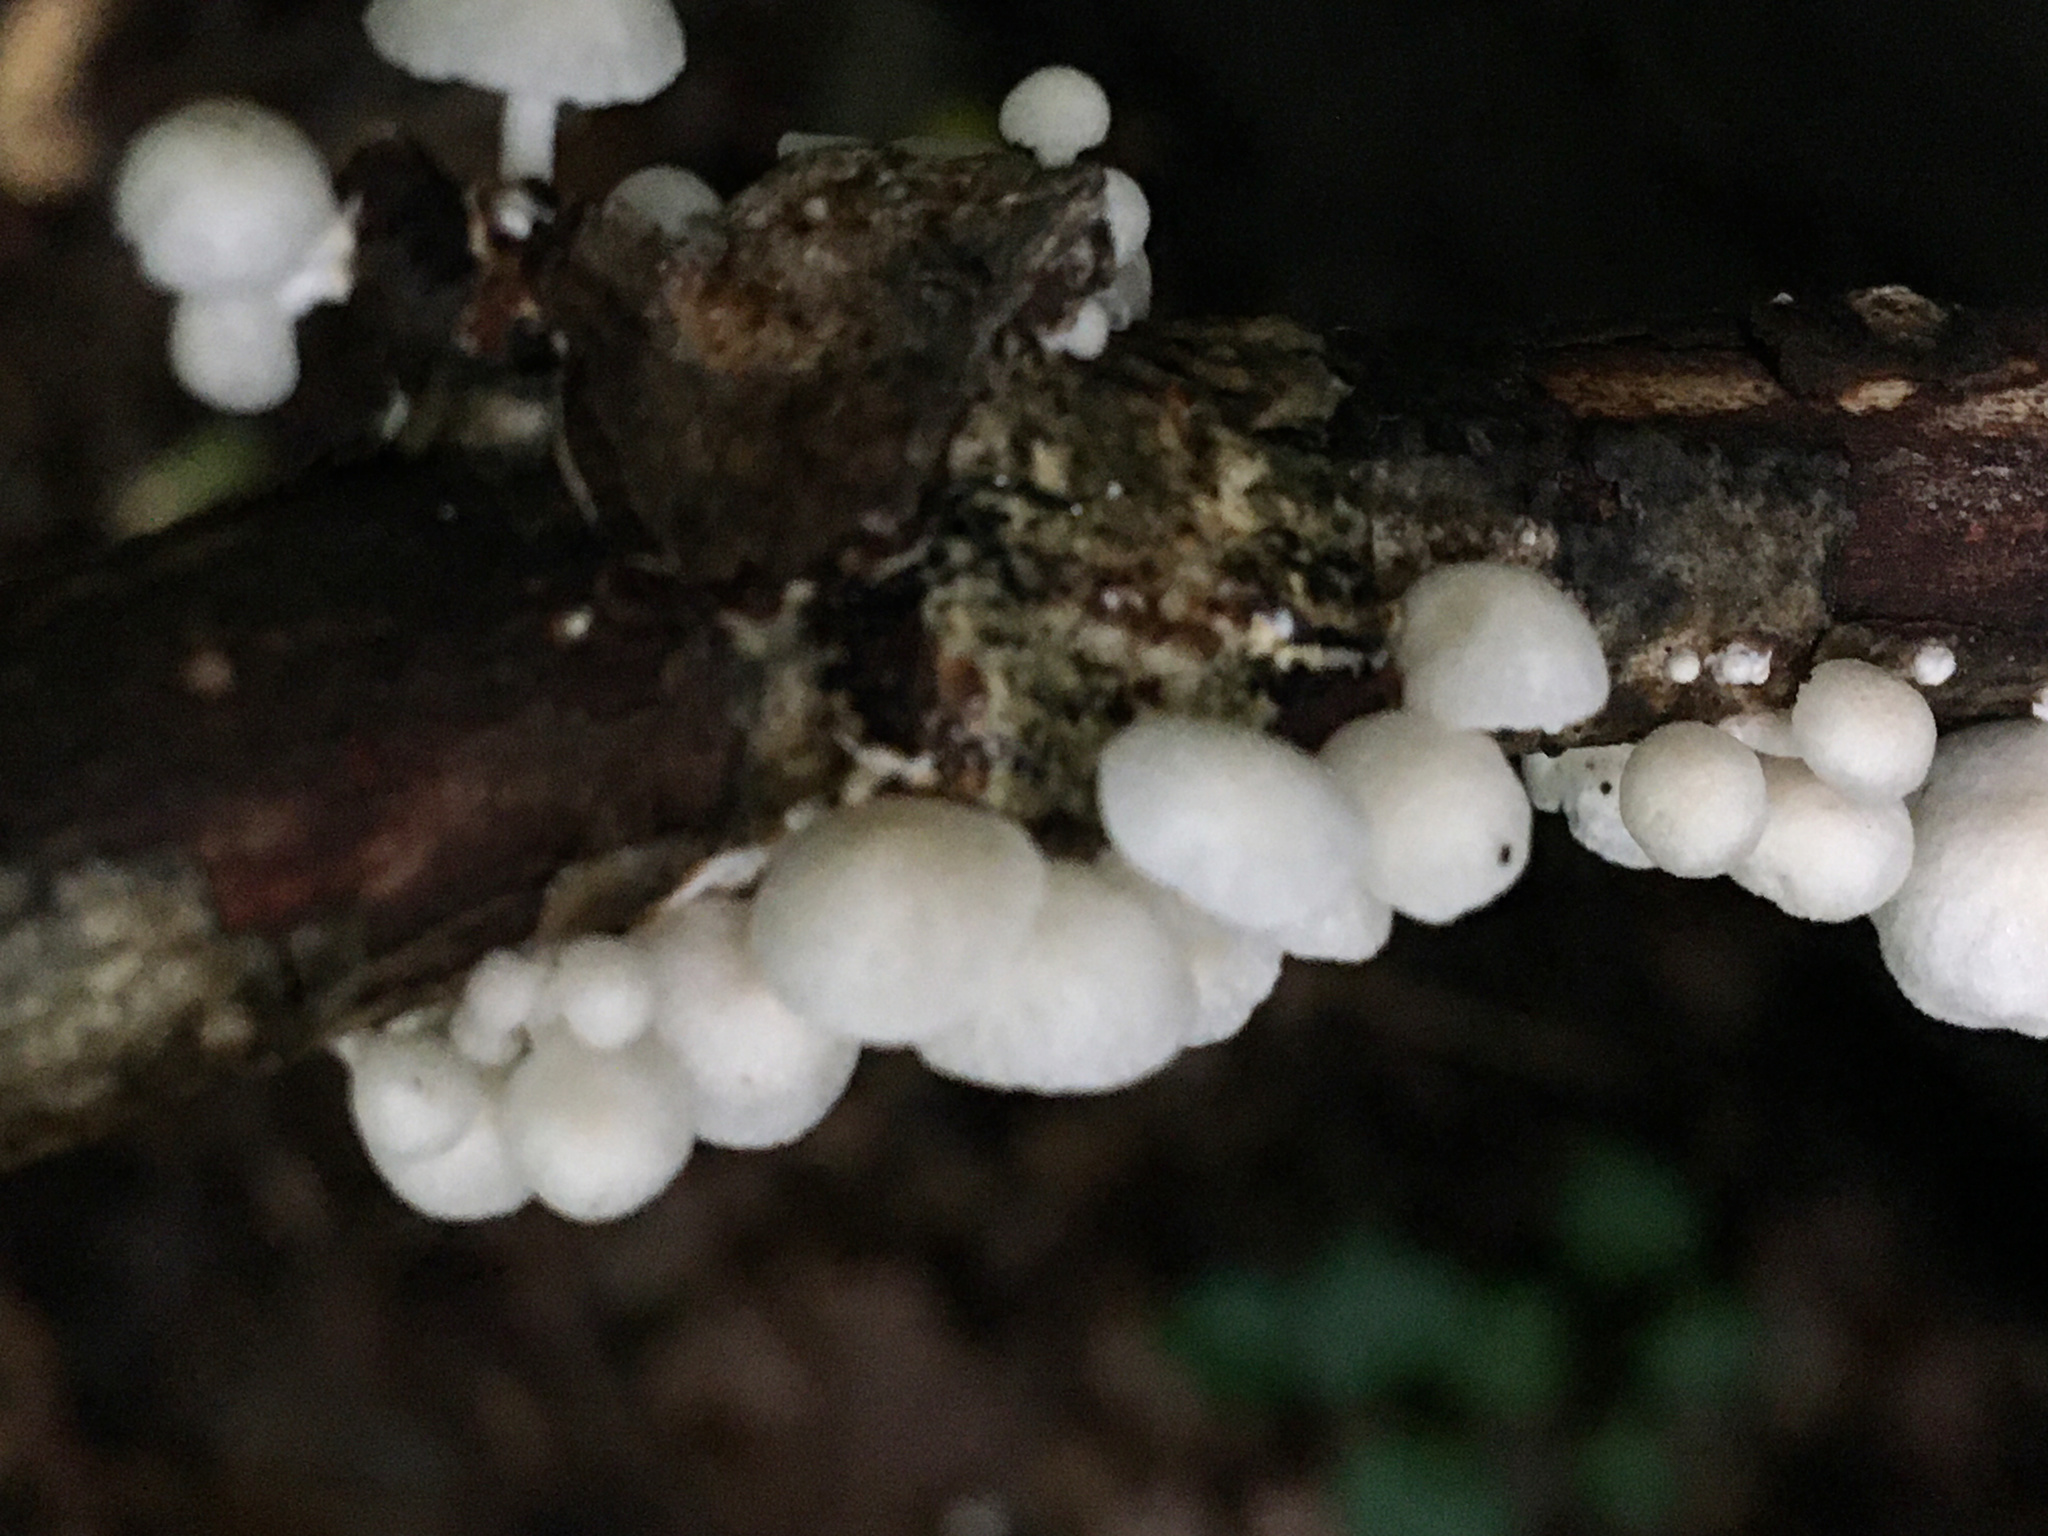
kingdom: Fungi
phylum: Basidiomycota
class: Agaricomycetes
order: Agaricales
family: Omphalotaceae
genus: Marasmiellus
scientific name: Marasmiellus candidus
